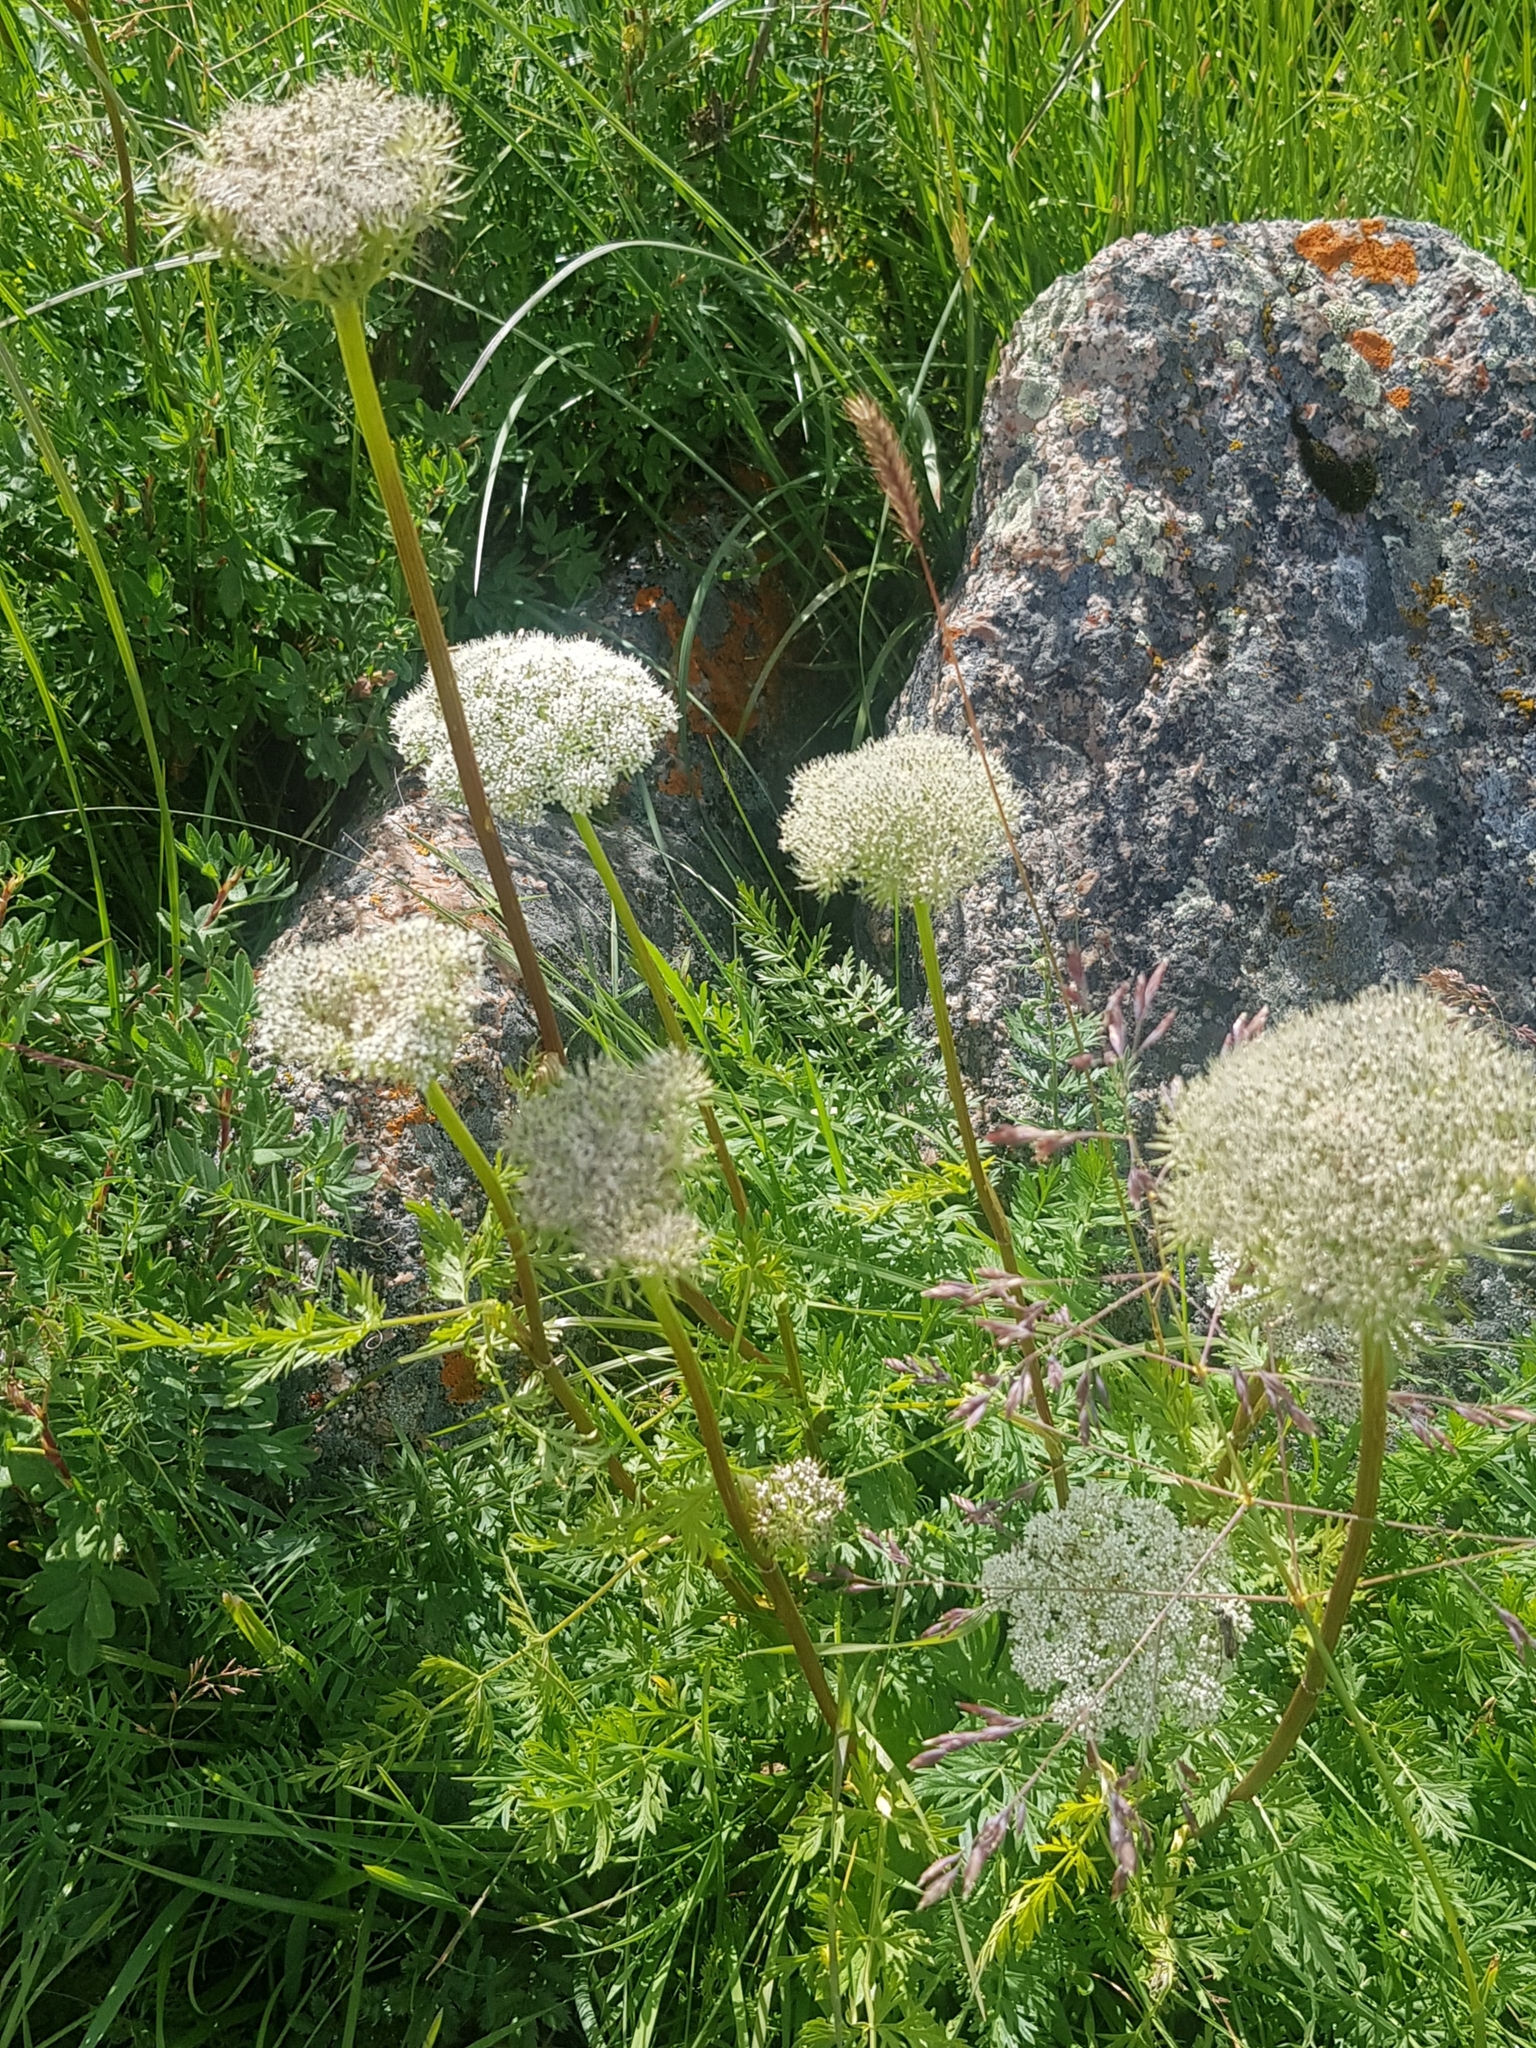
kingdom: Plantae
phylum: Tracheophyta
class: Magnoliopsida
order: Apiales
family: Apiaceae
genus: Seseli
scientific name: Seseli seseloides
